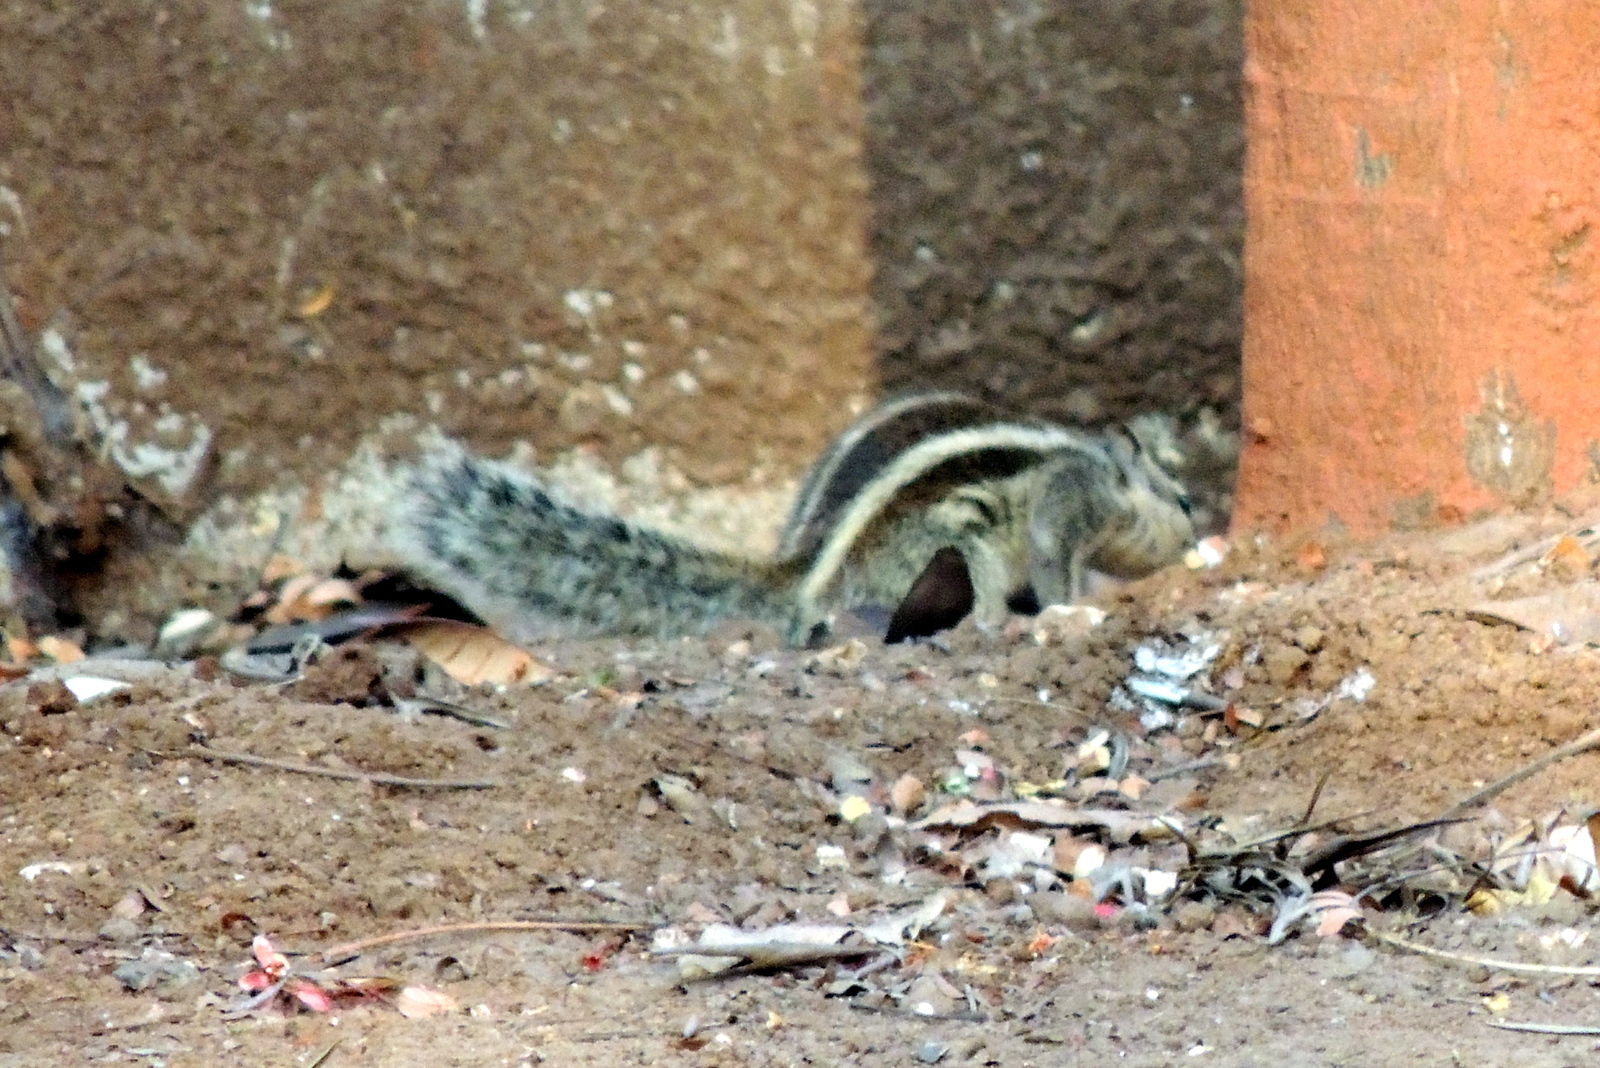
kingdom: Animalia
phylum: Chordata
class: Mammalia
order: Rodentia
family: Sciuridae
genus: Funambulus
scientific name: Funambulus pennantii
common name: Northern palm squirrel
